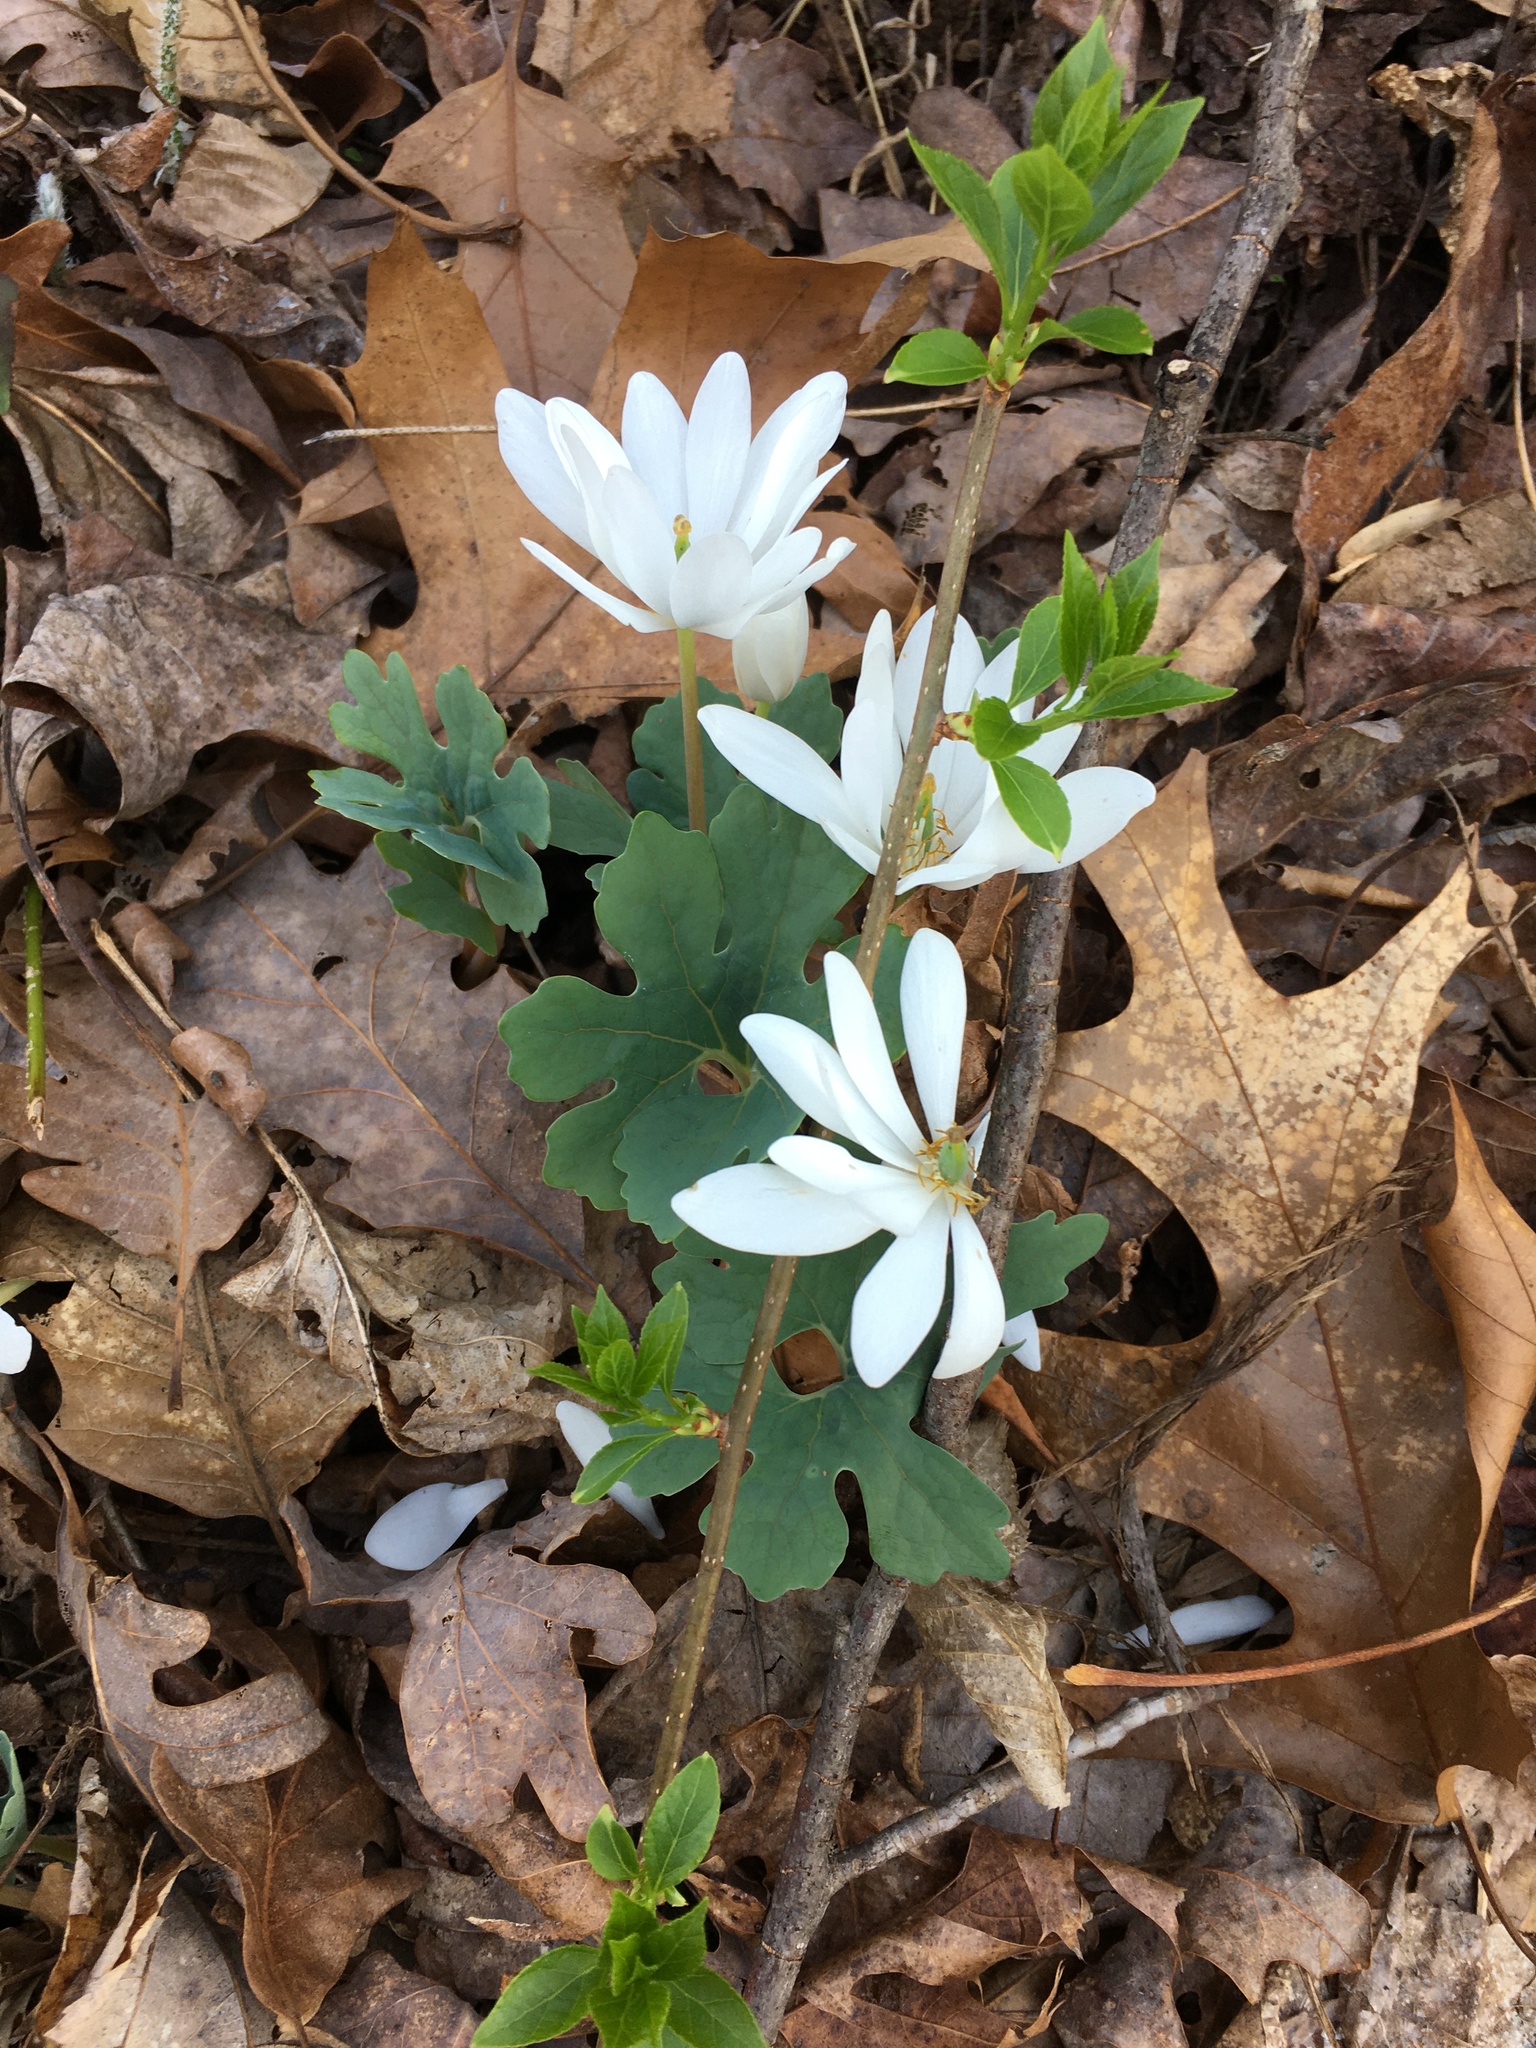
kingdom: Plantae
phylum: Tracheophyta
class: Magnoliopsida
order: Ranunculales
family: Papaveraceae
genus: Sanguinaria
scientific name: Sanguinaria canadensis
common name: Bloodroot
